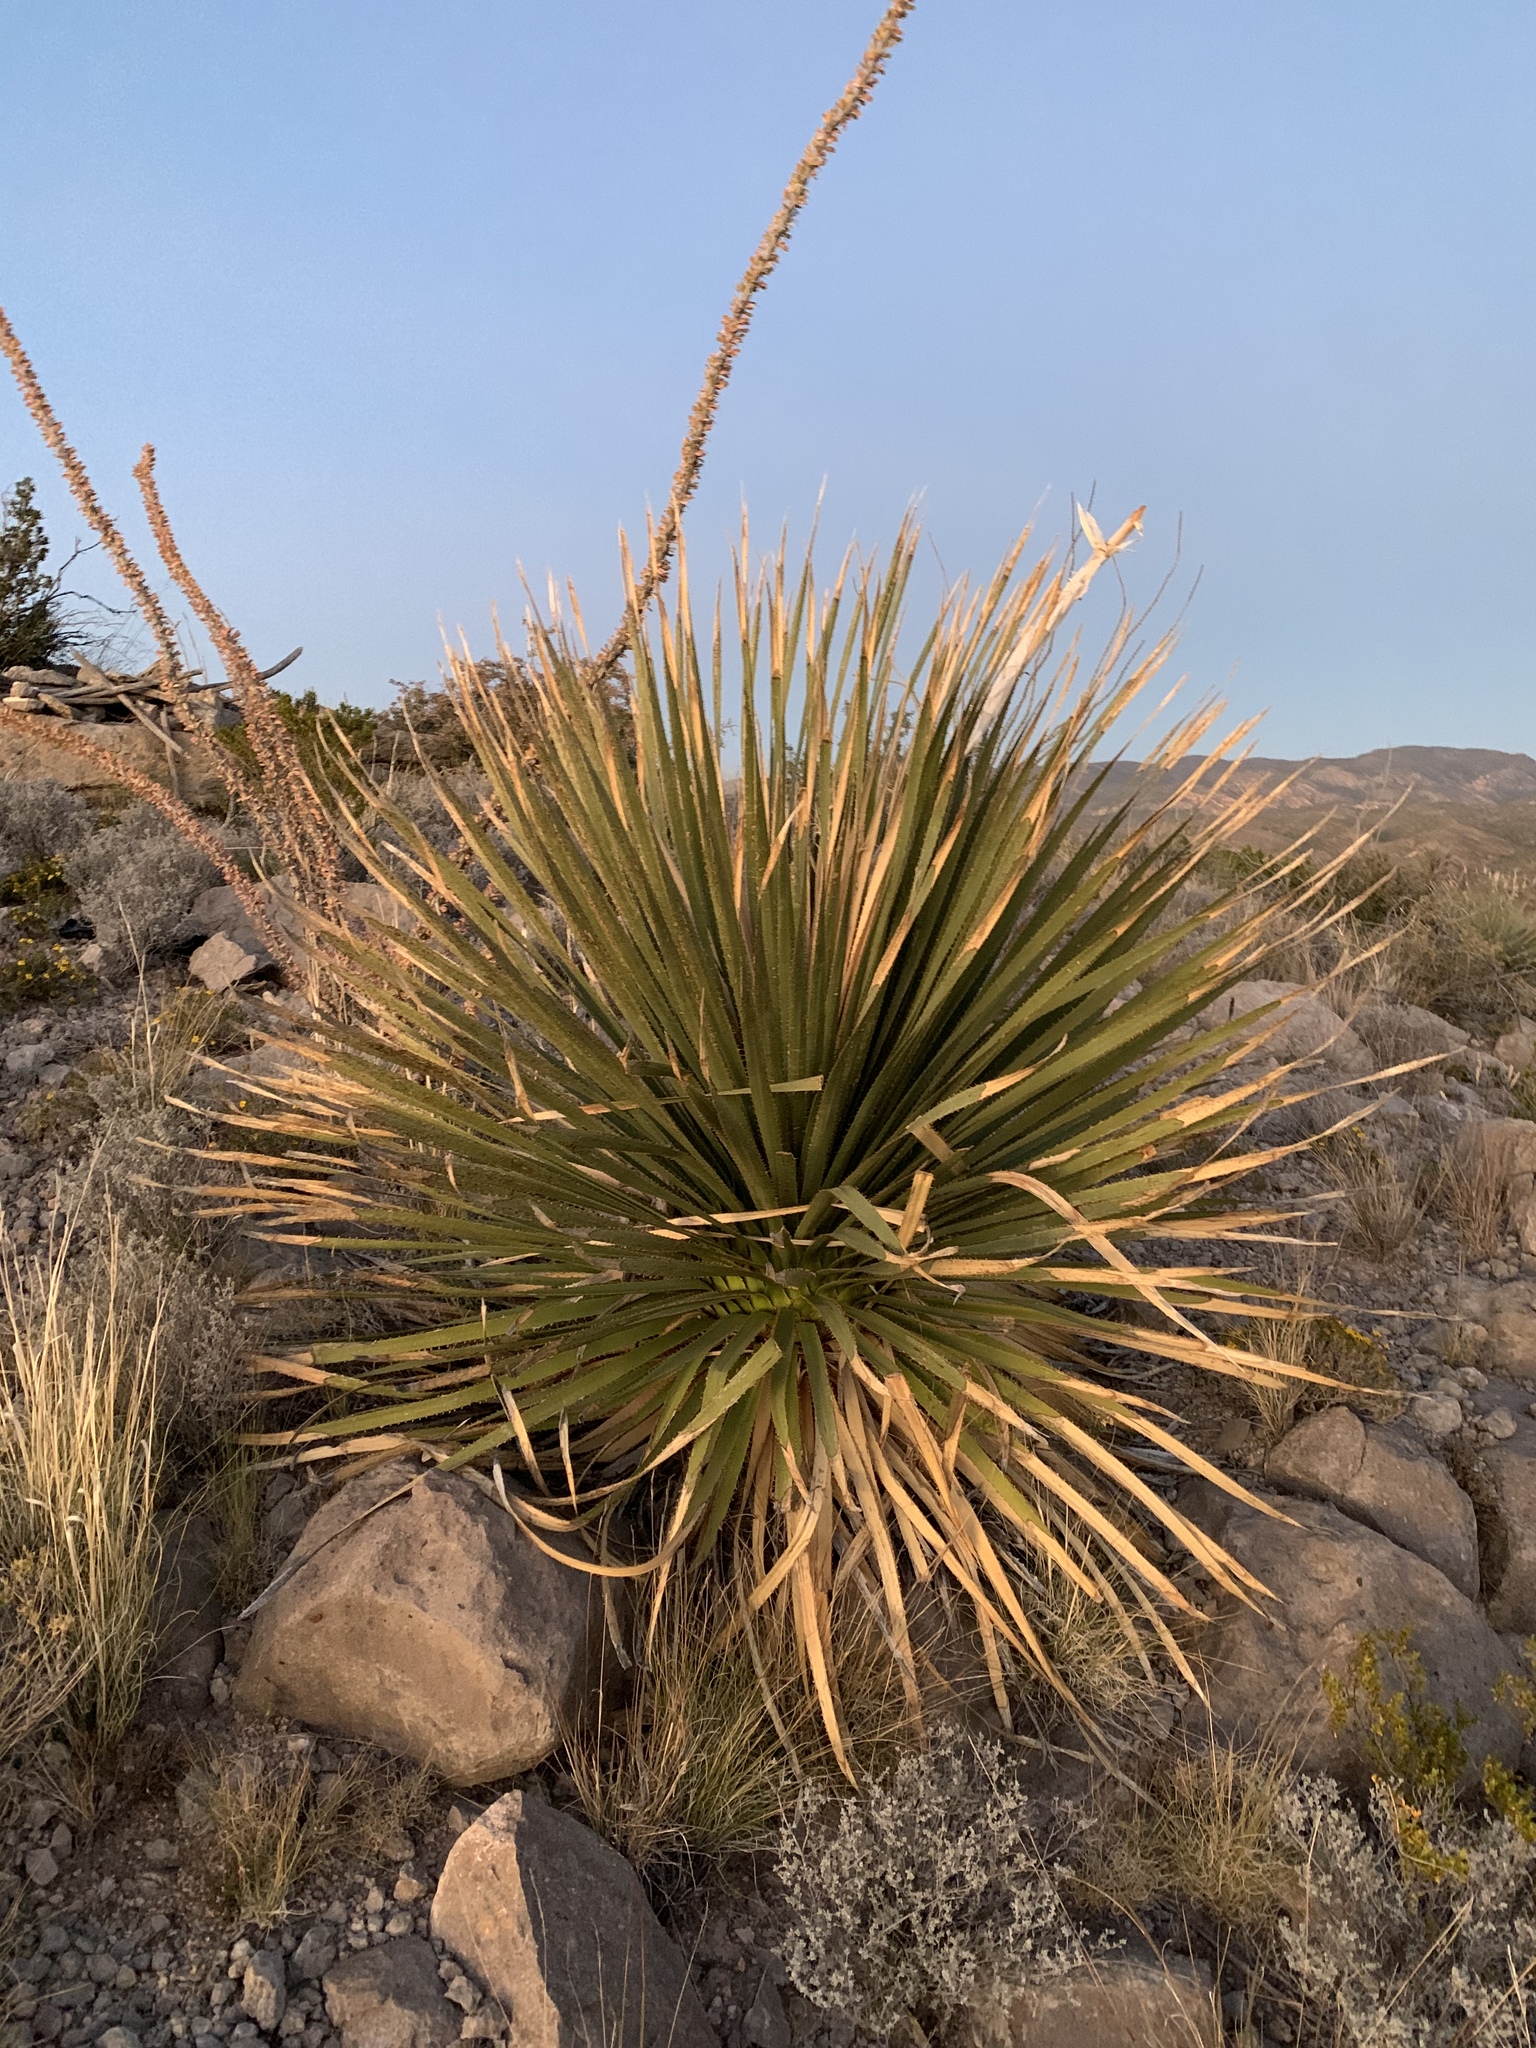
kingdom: Plantae
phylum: Tracheophyta
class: Liliopsida
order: Asparagales
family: Asparagaceae
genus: Dasylirion
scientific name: Dasylirion wheeleri
